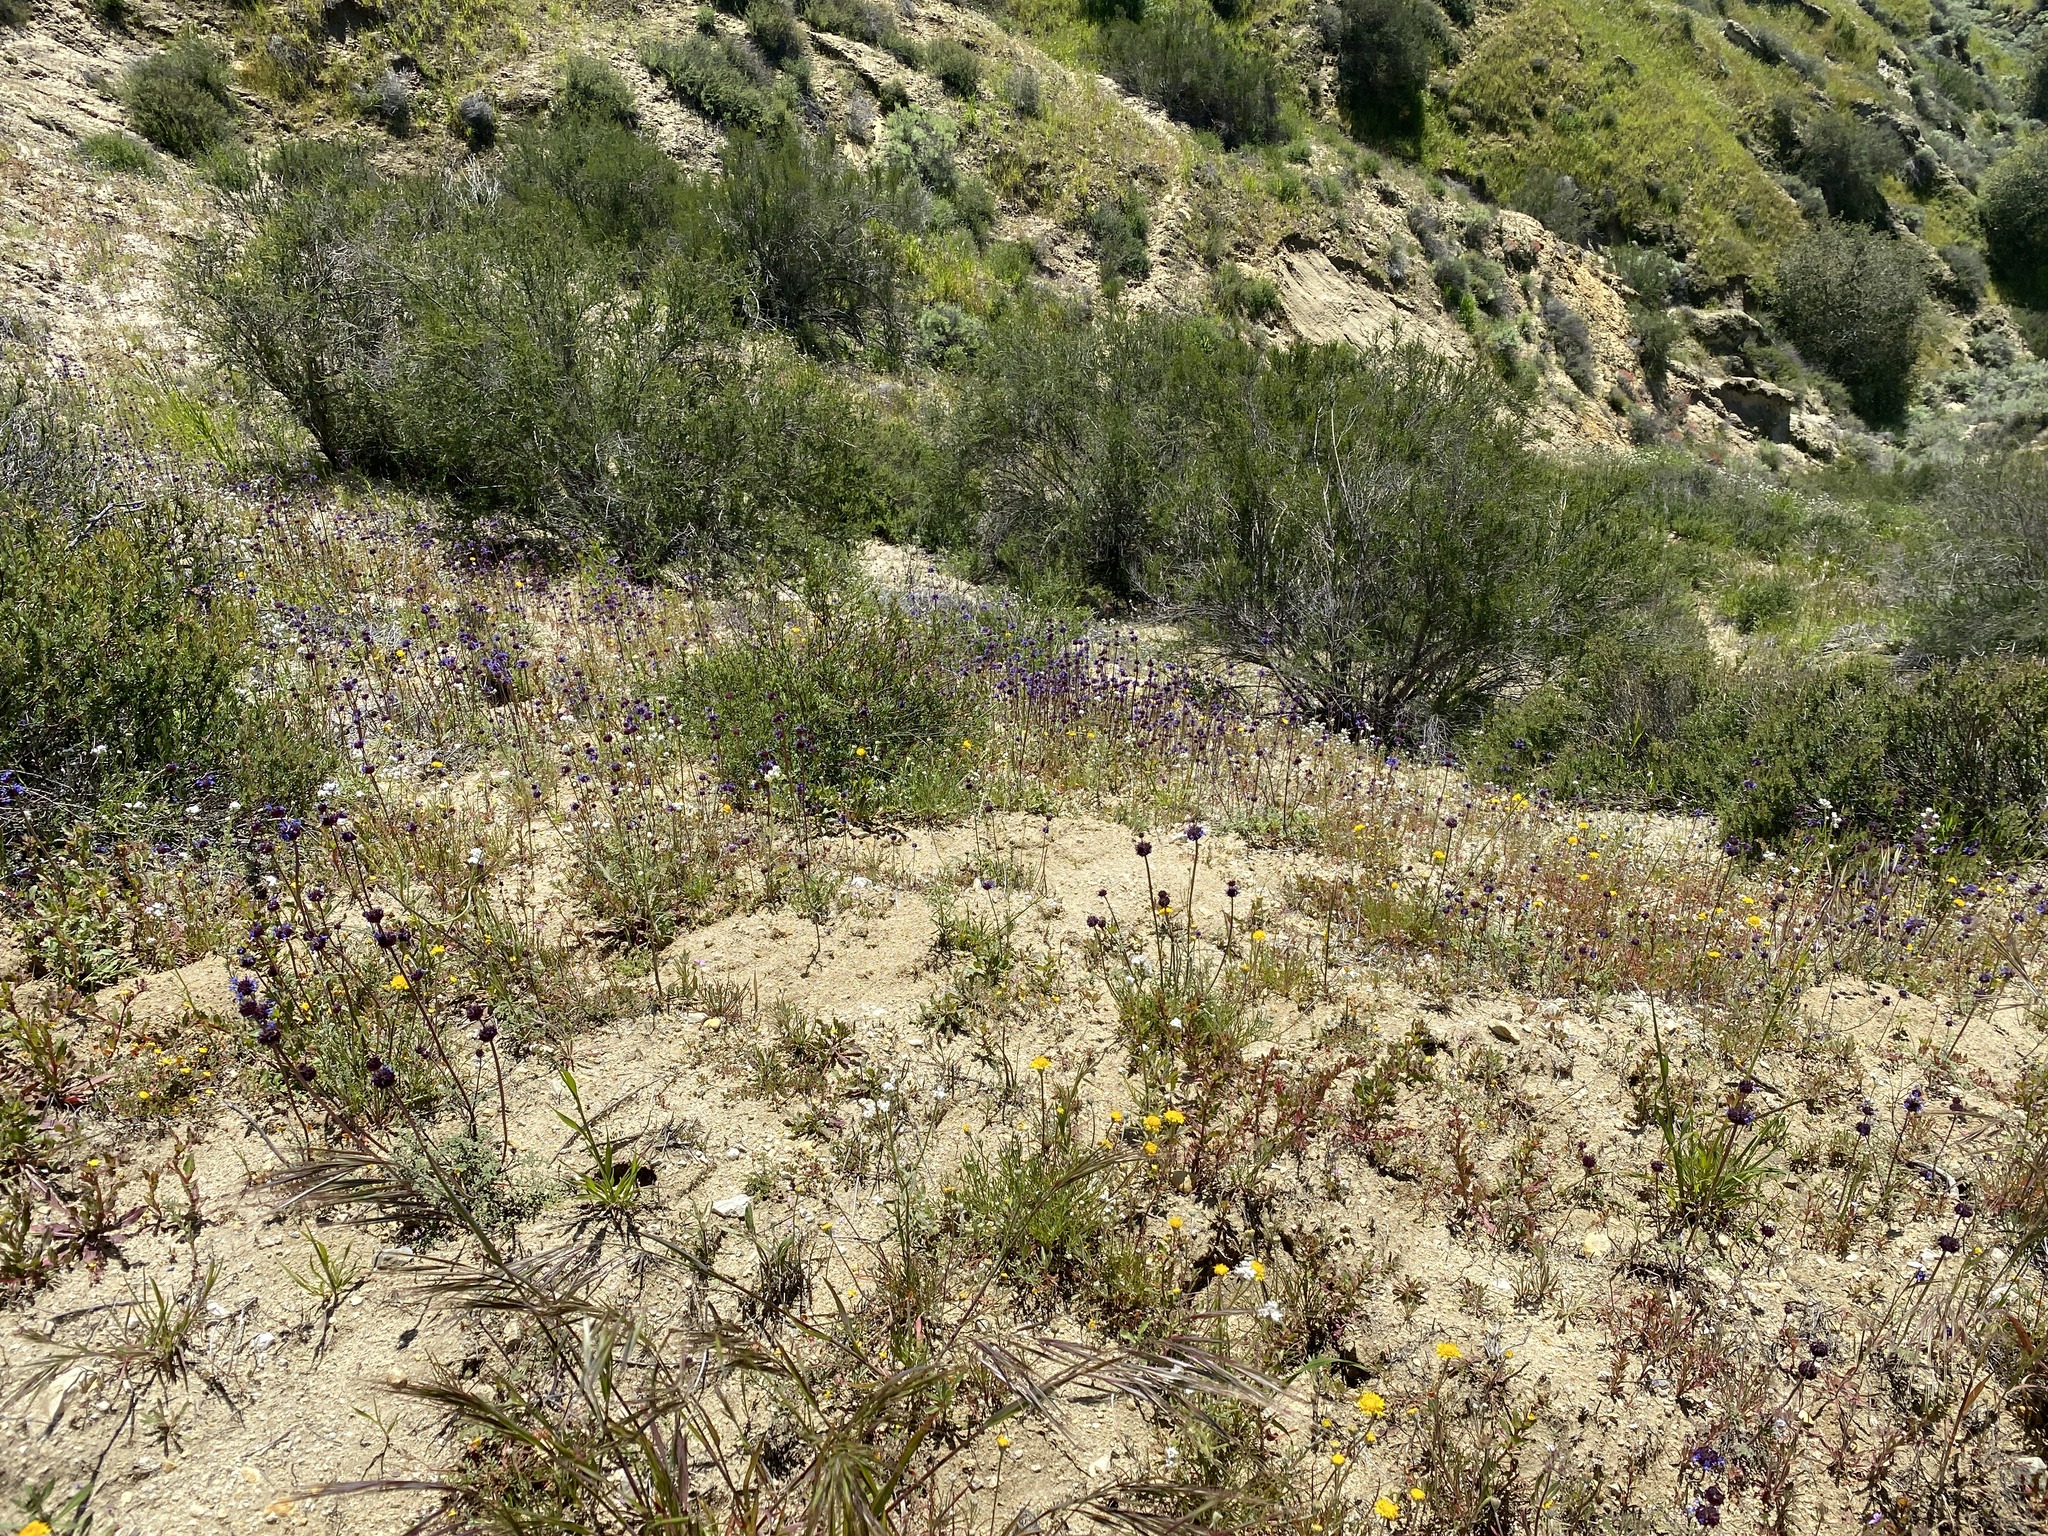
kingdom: Plantae
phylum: Tracheophyta
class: Magnoliopsida
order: Lamiales
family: Lamiaceae
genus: Salvia
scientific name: Salvia columbariae
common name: Chia
